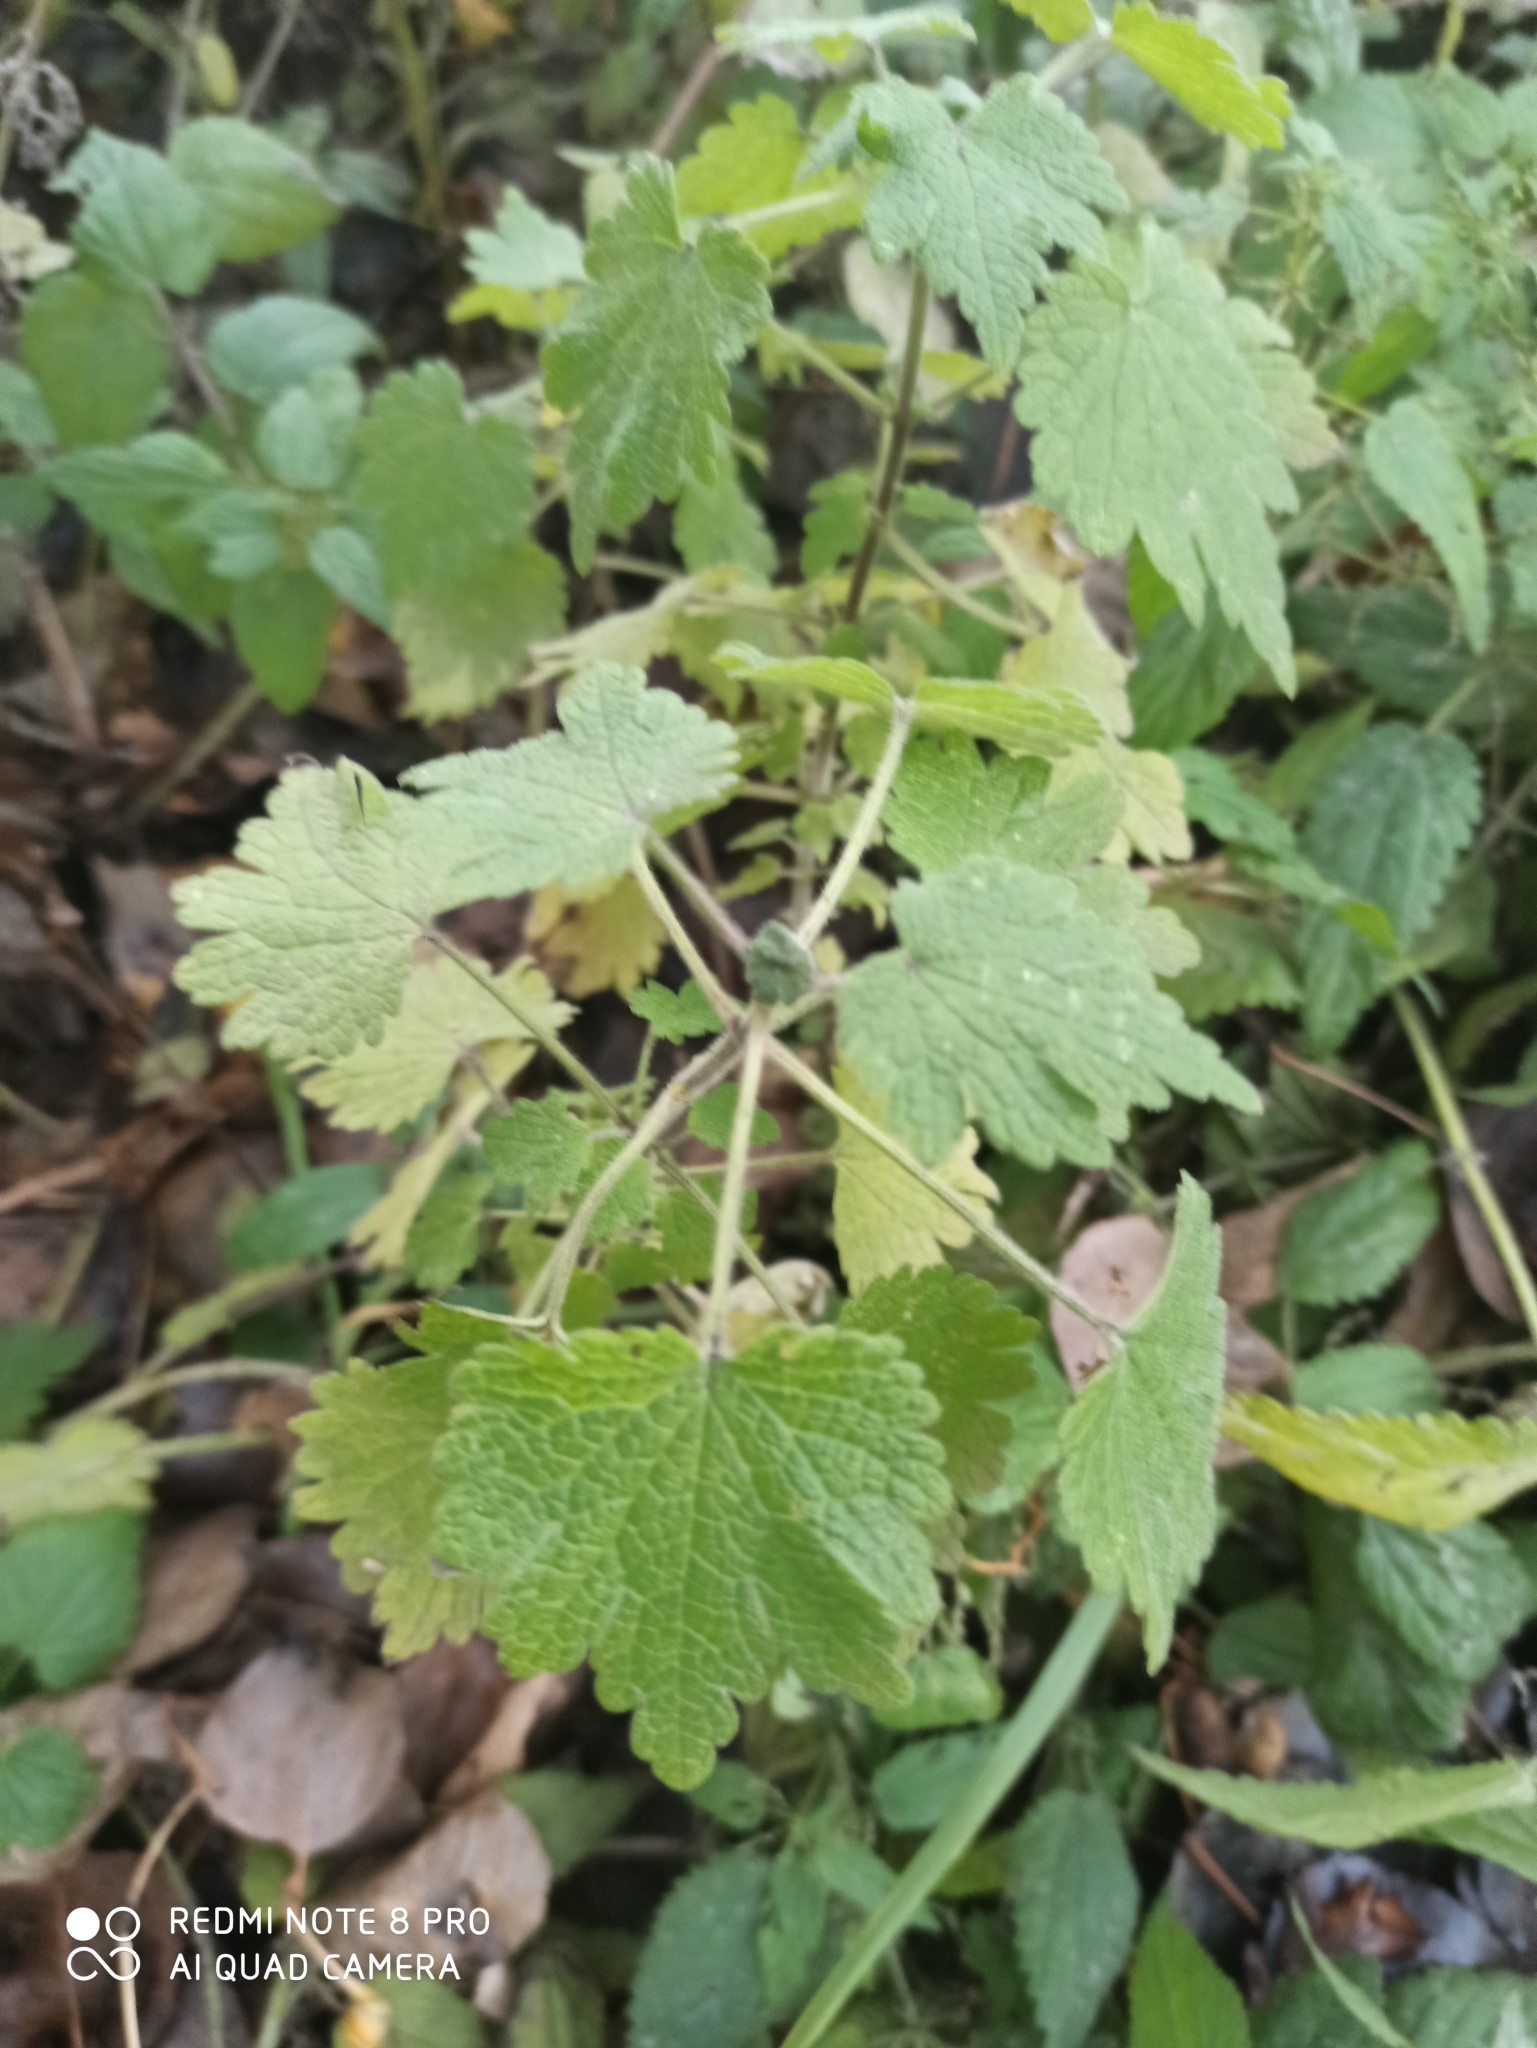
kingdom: Plantae
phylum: Tracheophyta
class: Magnoliopsida
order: Lamiales
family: Lamiaceae
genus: Leonurus
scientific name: Leonurus quinquelobatus
